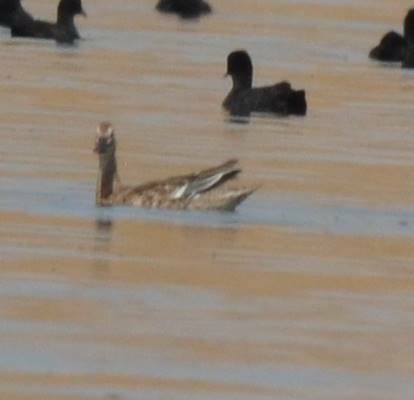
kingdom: Animalia
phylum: Chordata
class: Aves
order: Anseriformes
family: Anatidae
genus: Spatula
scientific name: Spatula querquedula
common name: Garganey
